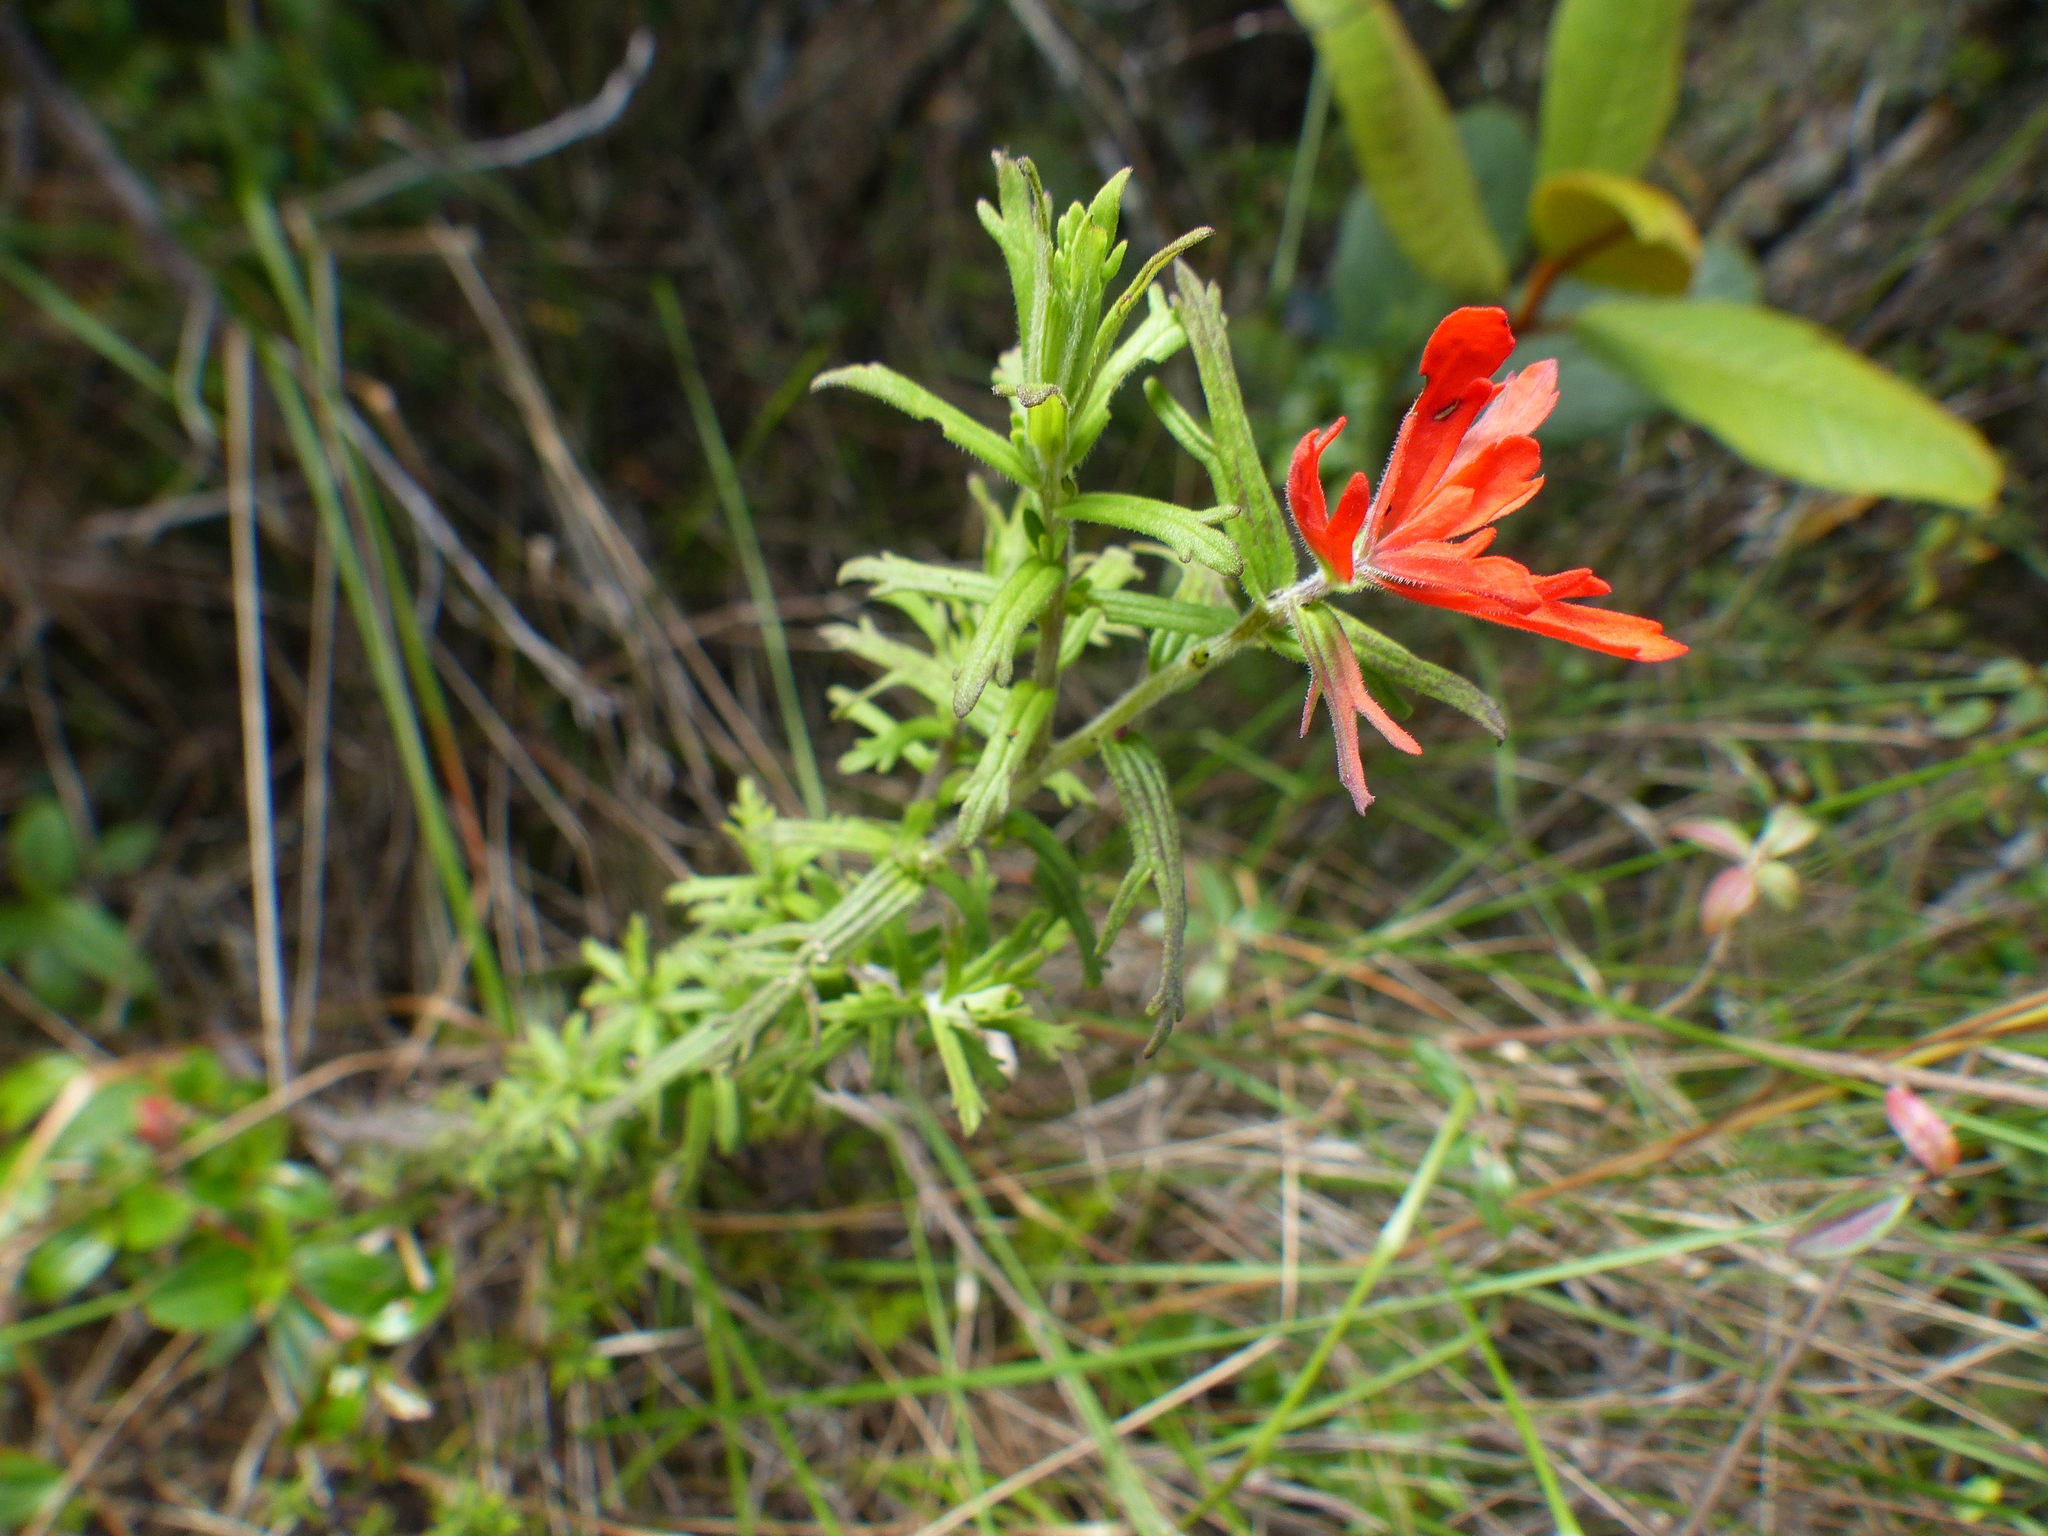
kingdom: Plantae
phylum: Tracheophyta
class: Magnoliopsida
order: Lamiales
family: Orobanchaceae
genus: Castilleja
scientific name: Castilleja fissifolia
